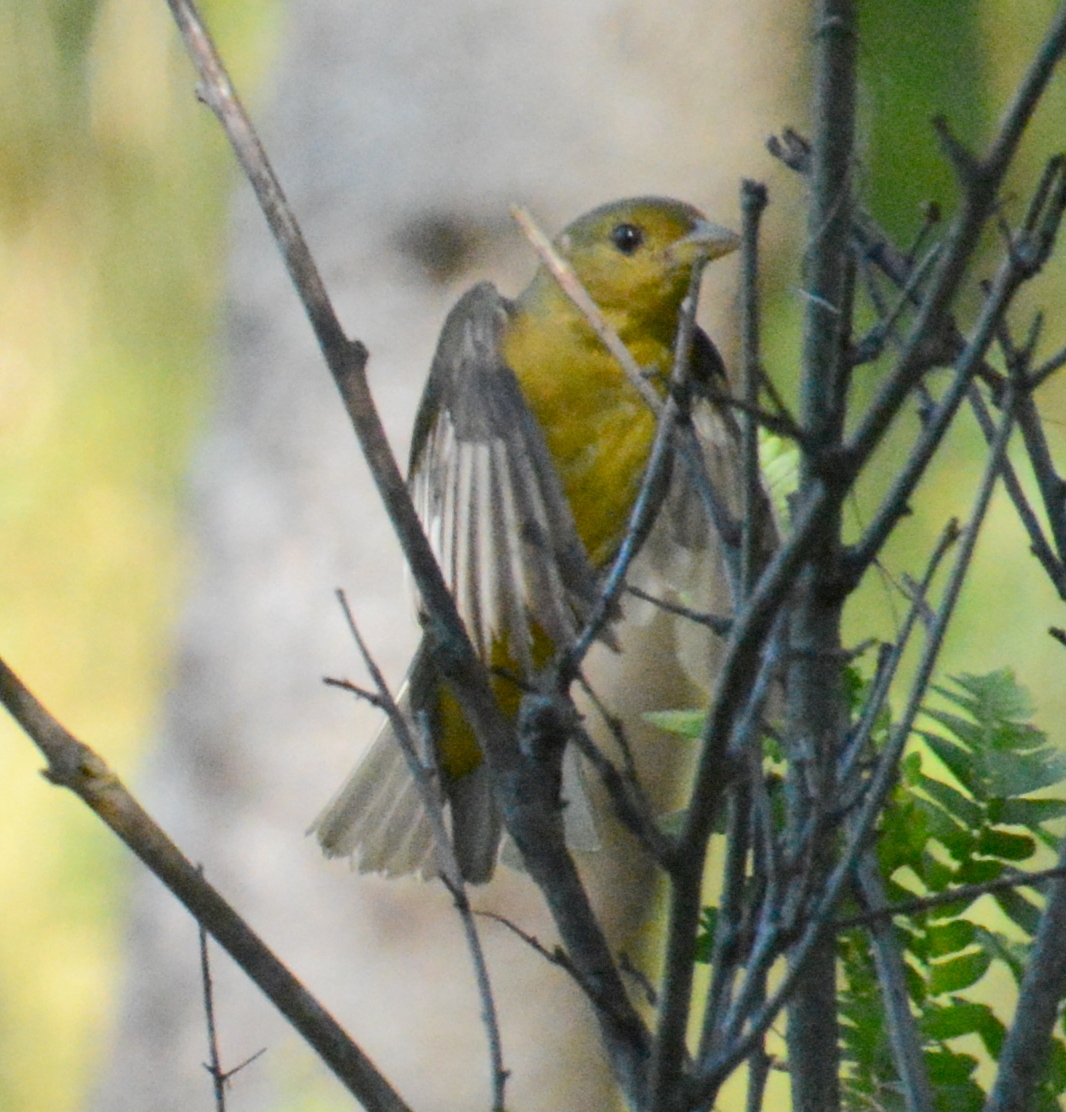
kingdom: Animalia
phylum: Chordata
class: Aves
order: Passeriformes
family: Cardinalidae
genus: Piranga
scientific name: Piranga olivacea
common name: Scarlet tanager
